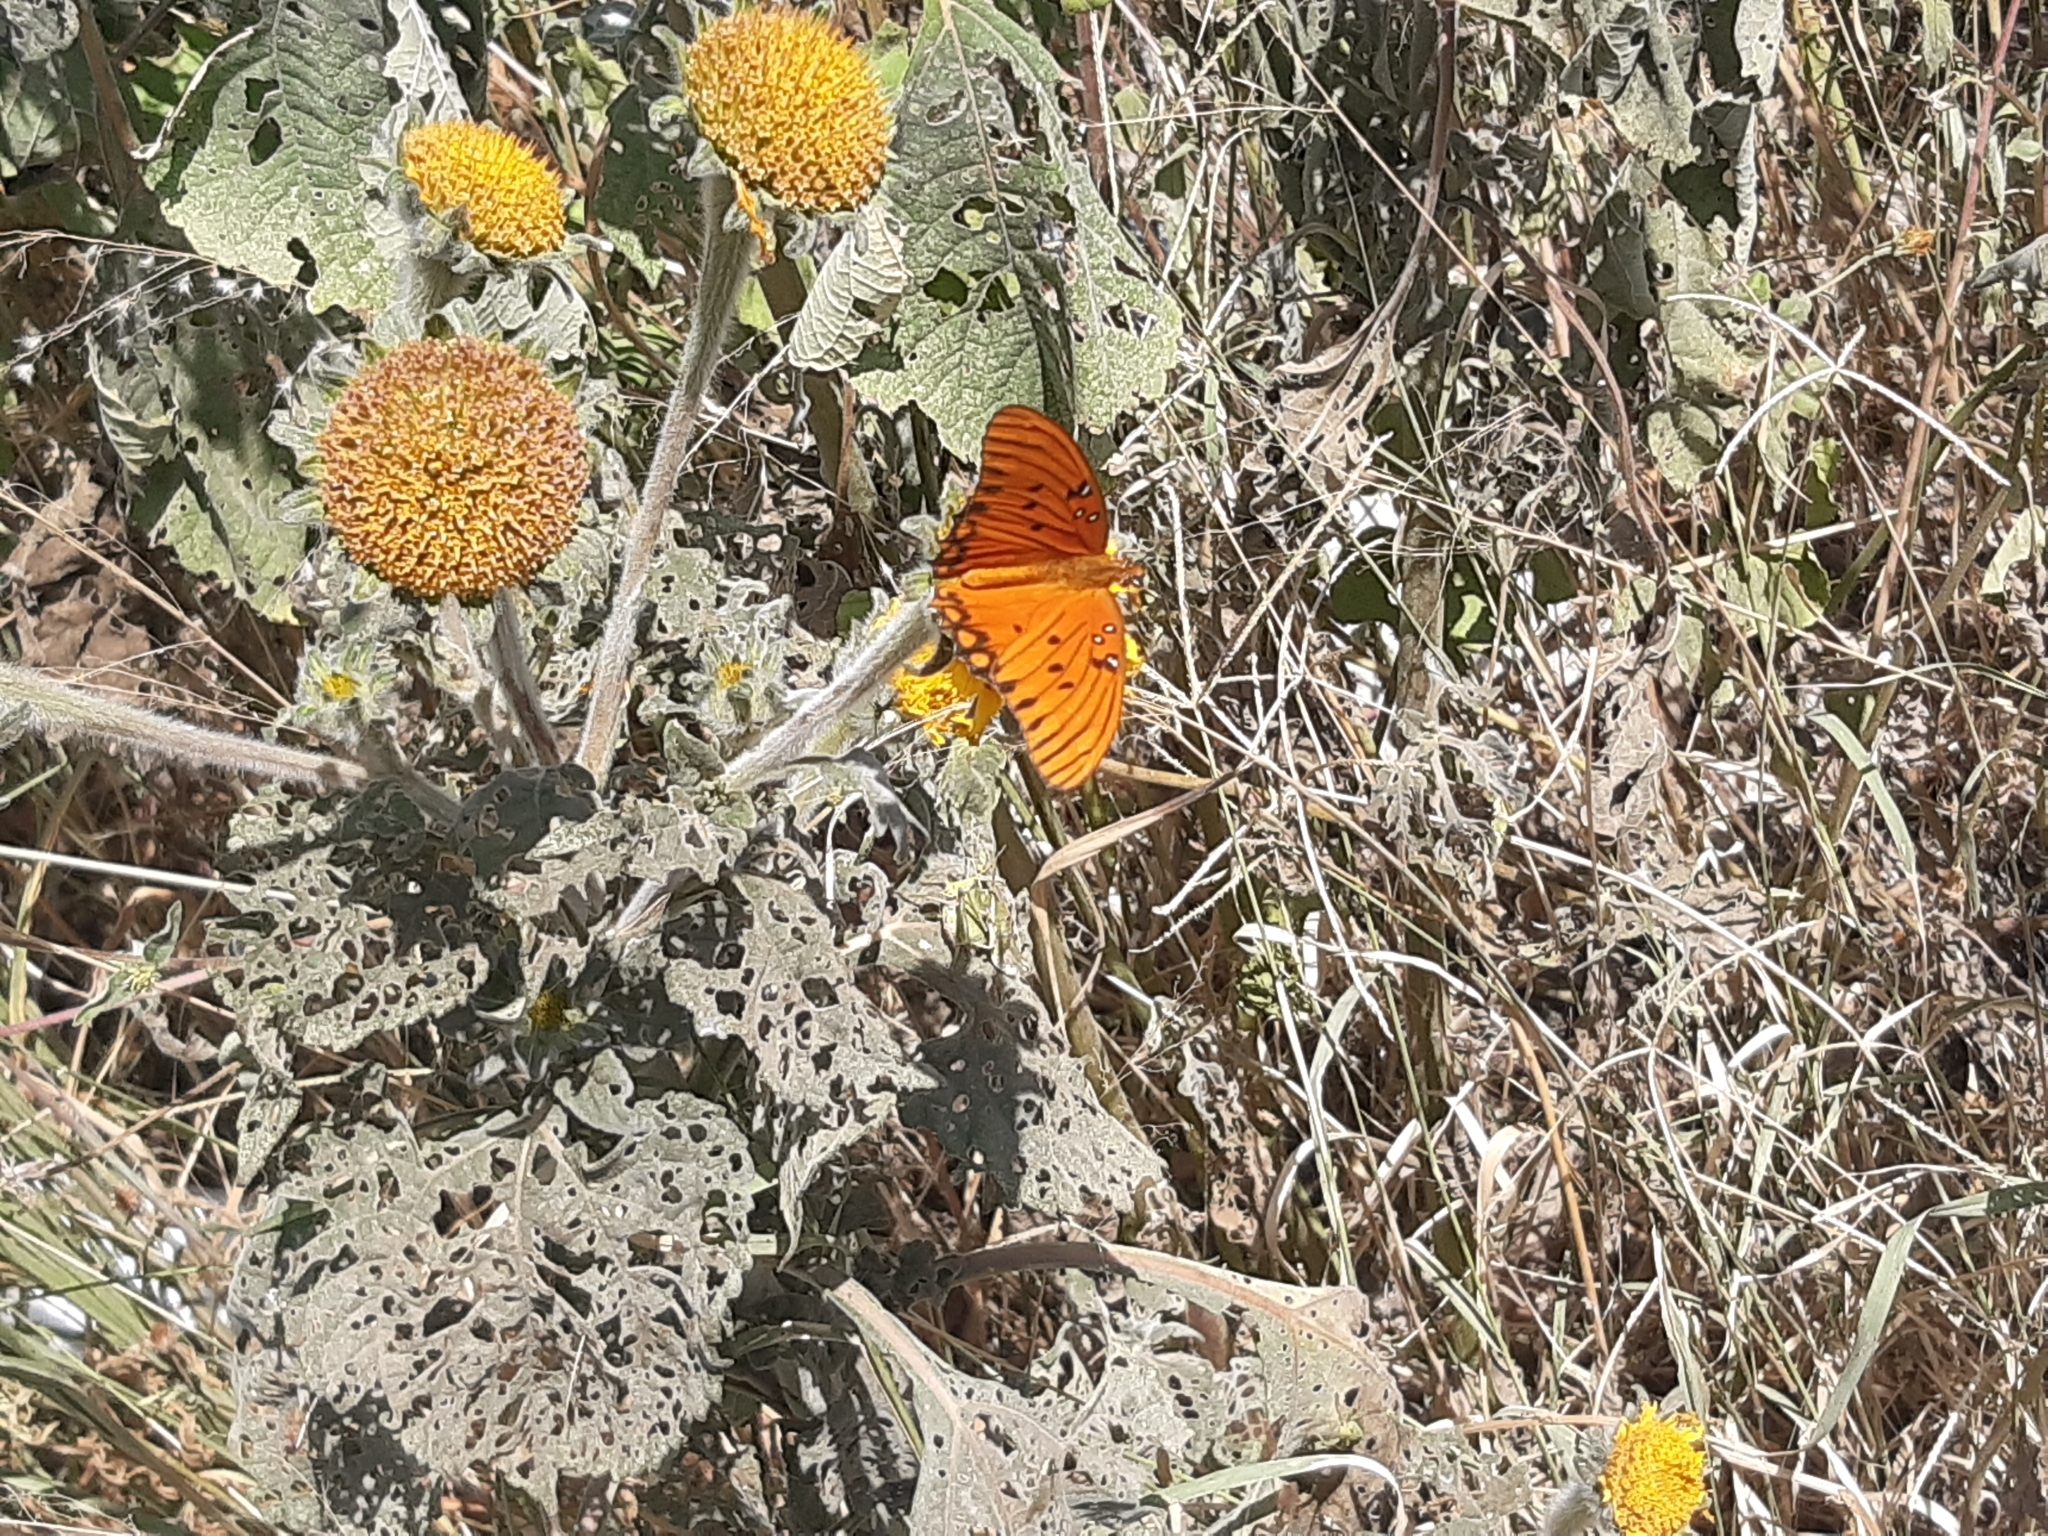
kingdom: Animalia
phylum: Arthropoda
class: Insecta
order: Lepidoptera
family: Nymphalidae
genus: Dione
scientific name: Dione vanillae
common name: Gulf fritillary
